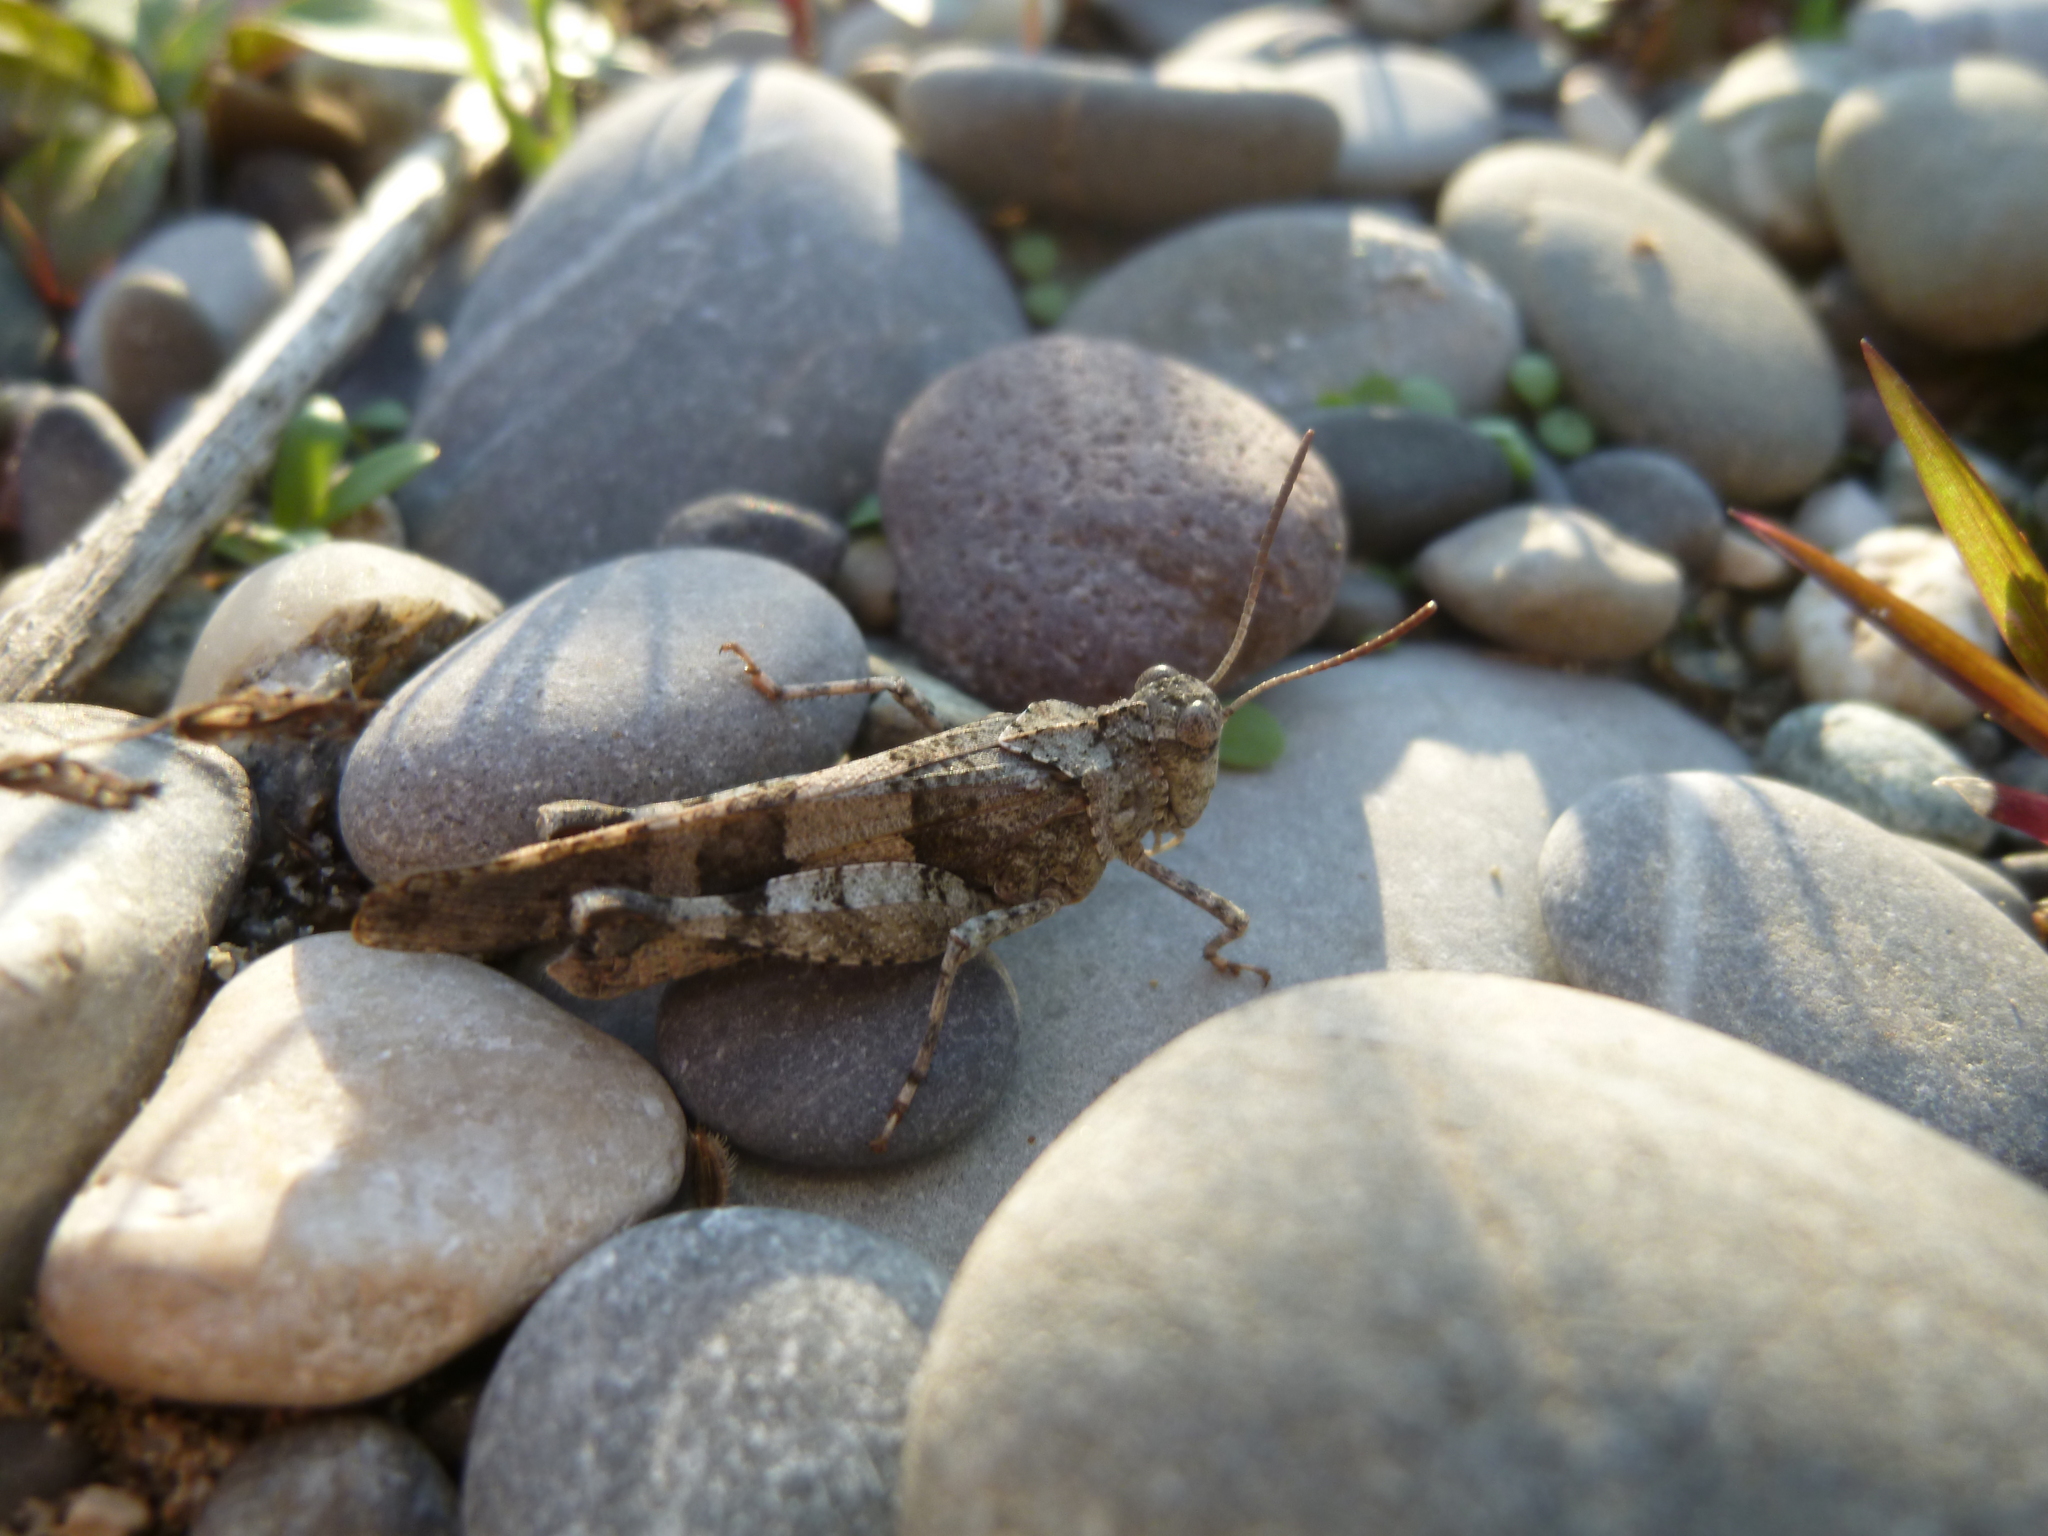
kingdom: Animalia
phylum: Arthropoda
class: Insecta
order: Orthoptera
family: Acrididae
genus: Oedipoda
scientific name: Oedipoda caerulescens
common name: Blue-winged grasshopper
